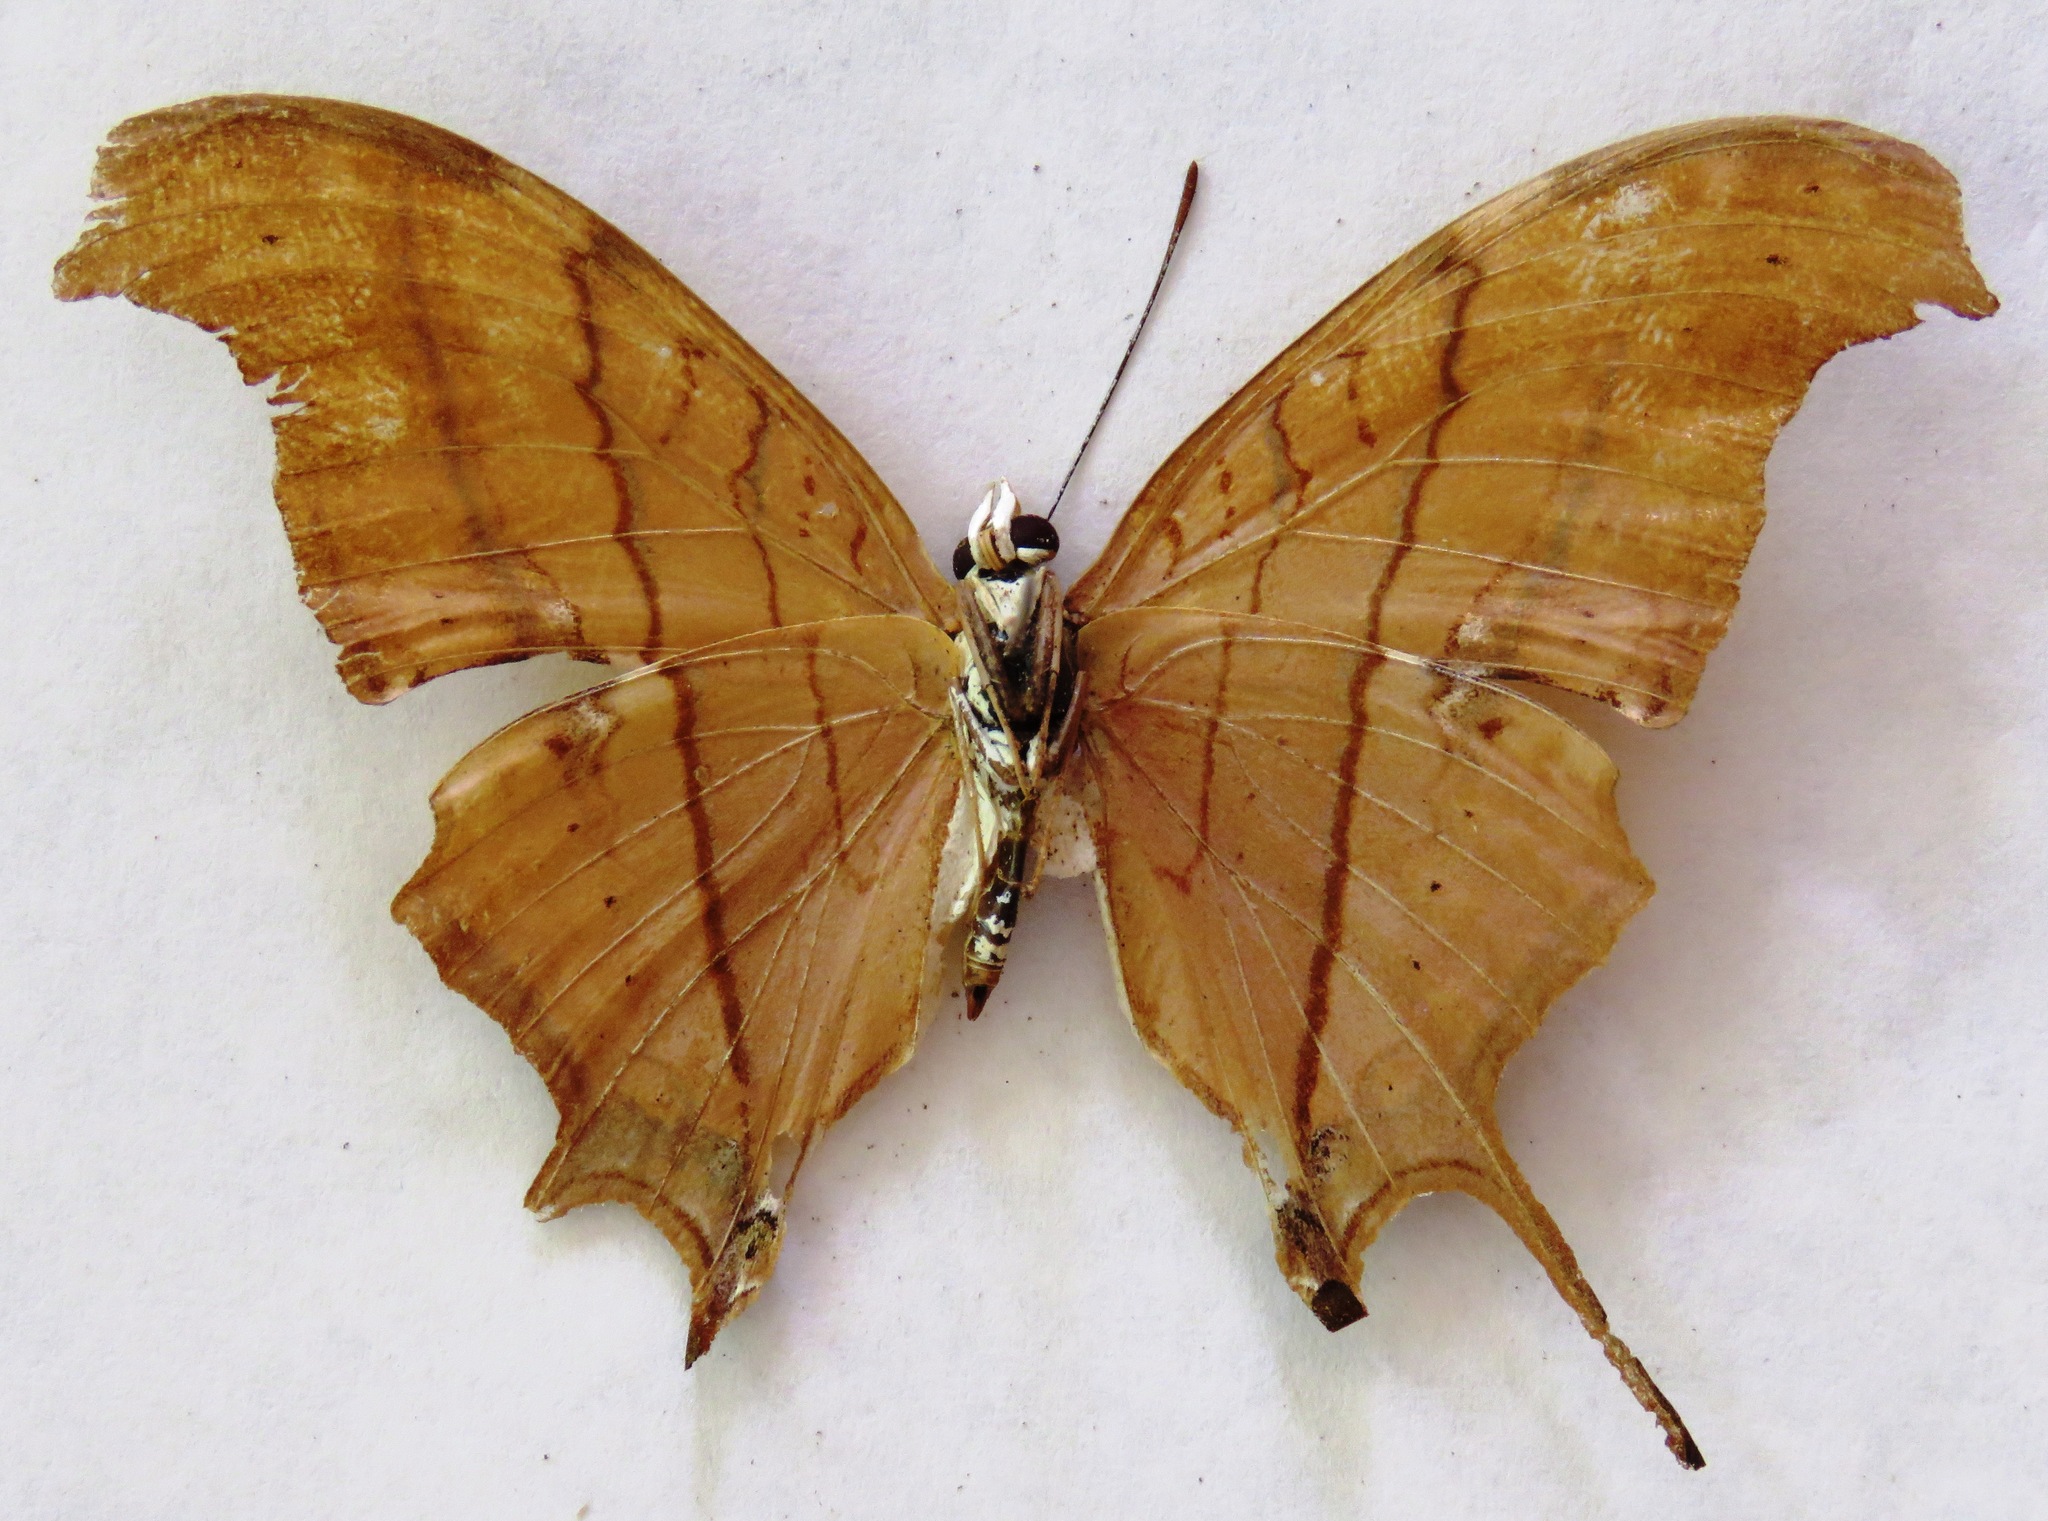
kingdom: Animalia
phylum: Arthropoda
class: Insecta
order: Lepidoptera
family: Nymphalidae
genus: Marpesia
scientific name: Marpesia petreus
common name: Red dagger wing
